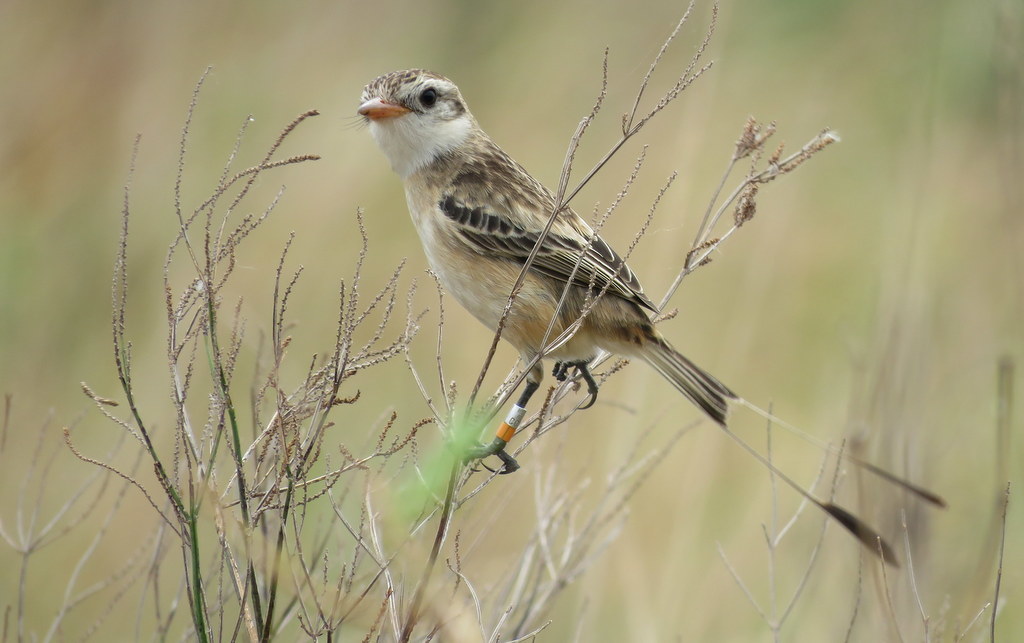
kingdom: Animalia
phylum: Chordata
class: Aves
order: Passeriformes
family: Tyrannidae
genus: Alectrurus
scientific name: Alectrurus risora
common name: Strange-tailed tyrant
